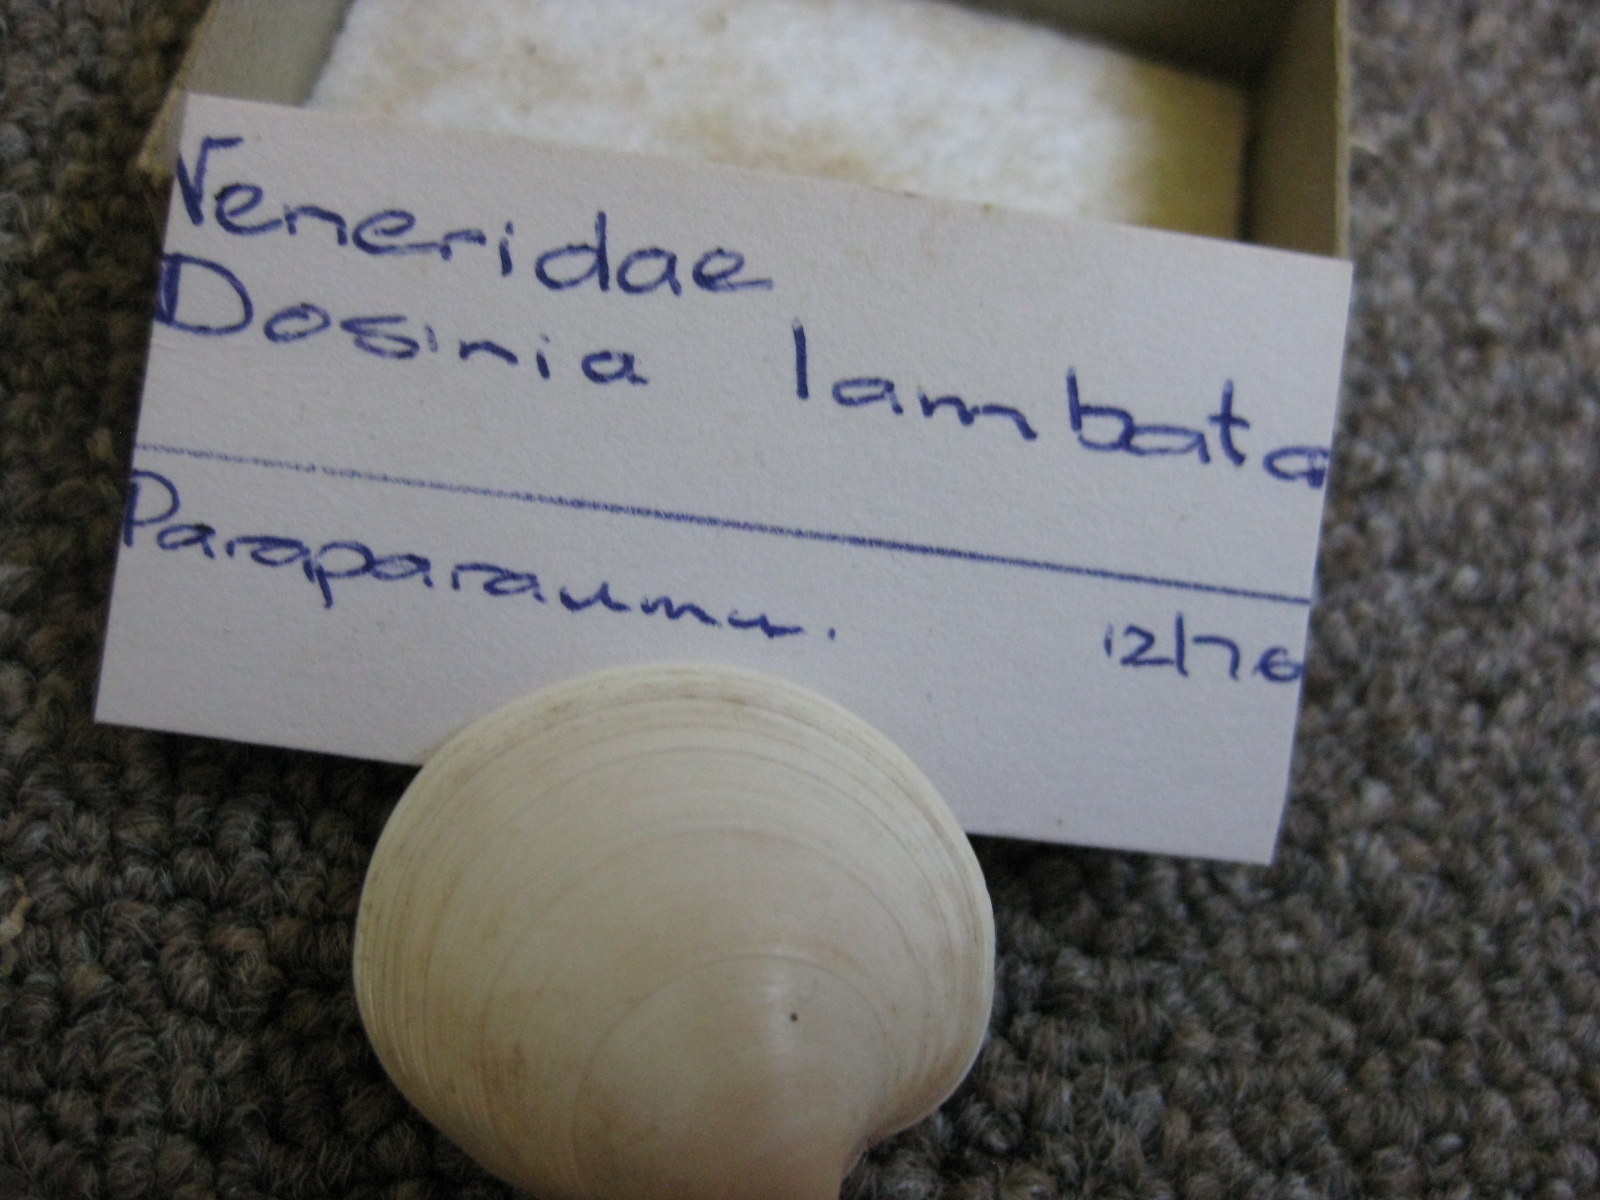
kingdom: Animalia
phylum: Mollusca
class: Bivalvia
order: Venerida
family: Veneridae
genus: Dosinia
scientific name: Dosinia lambata
